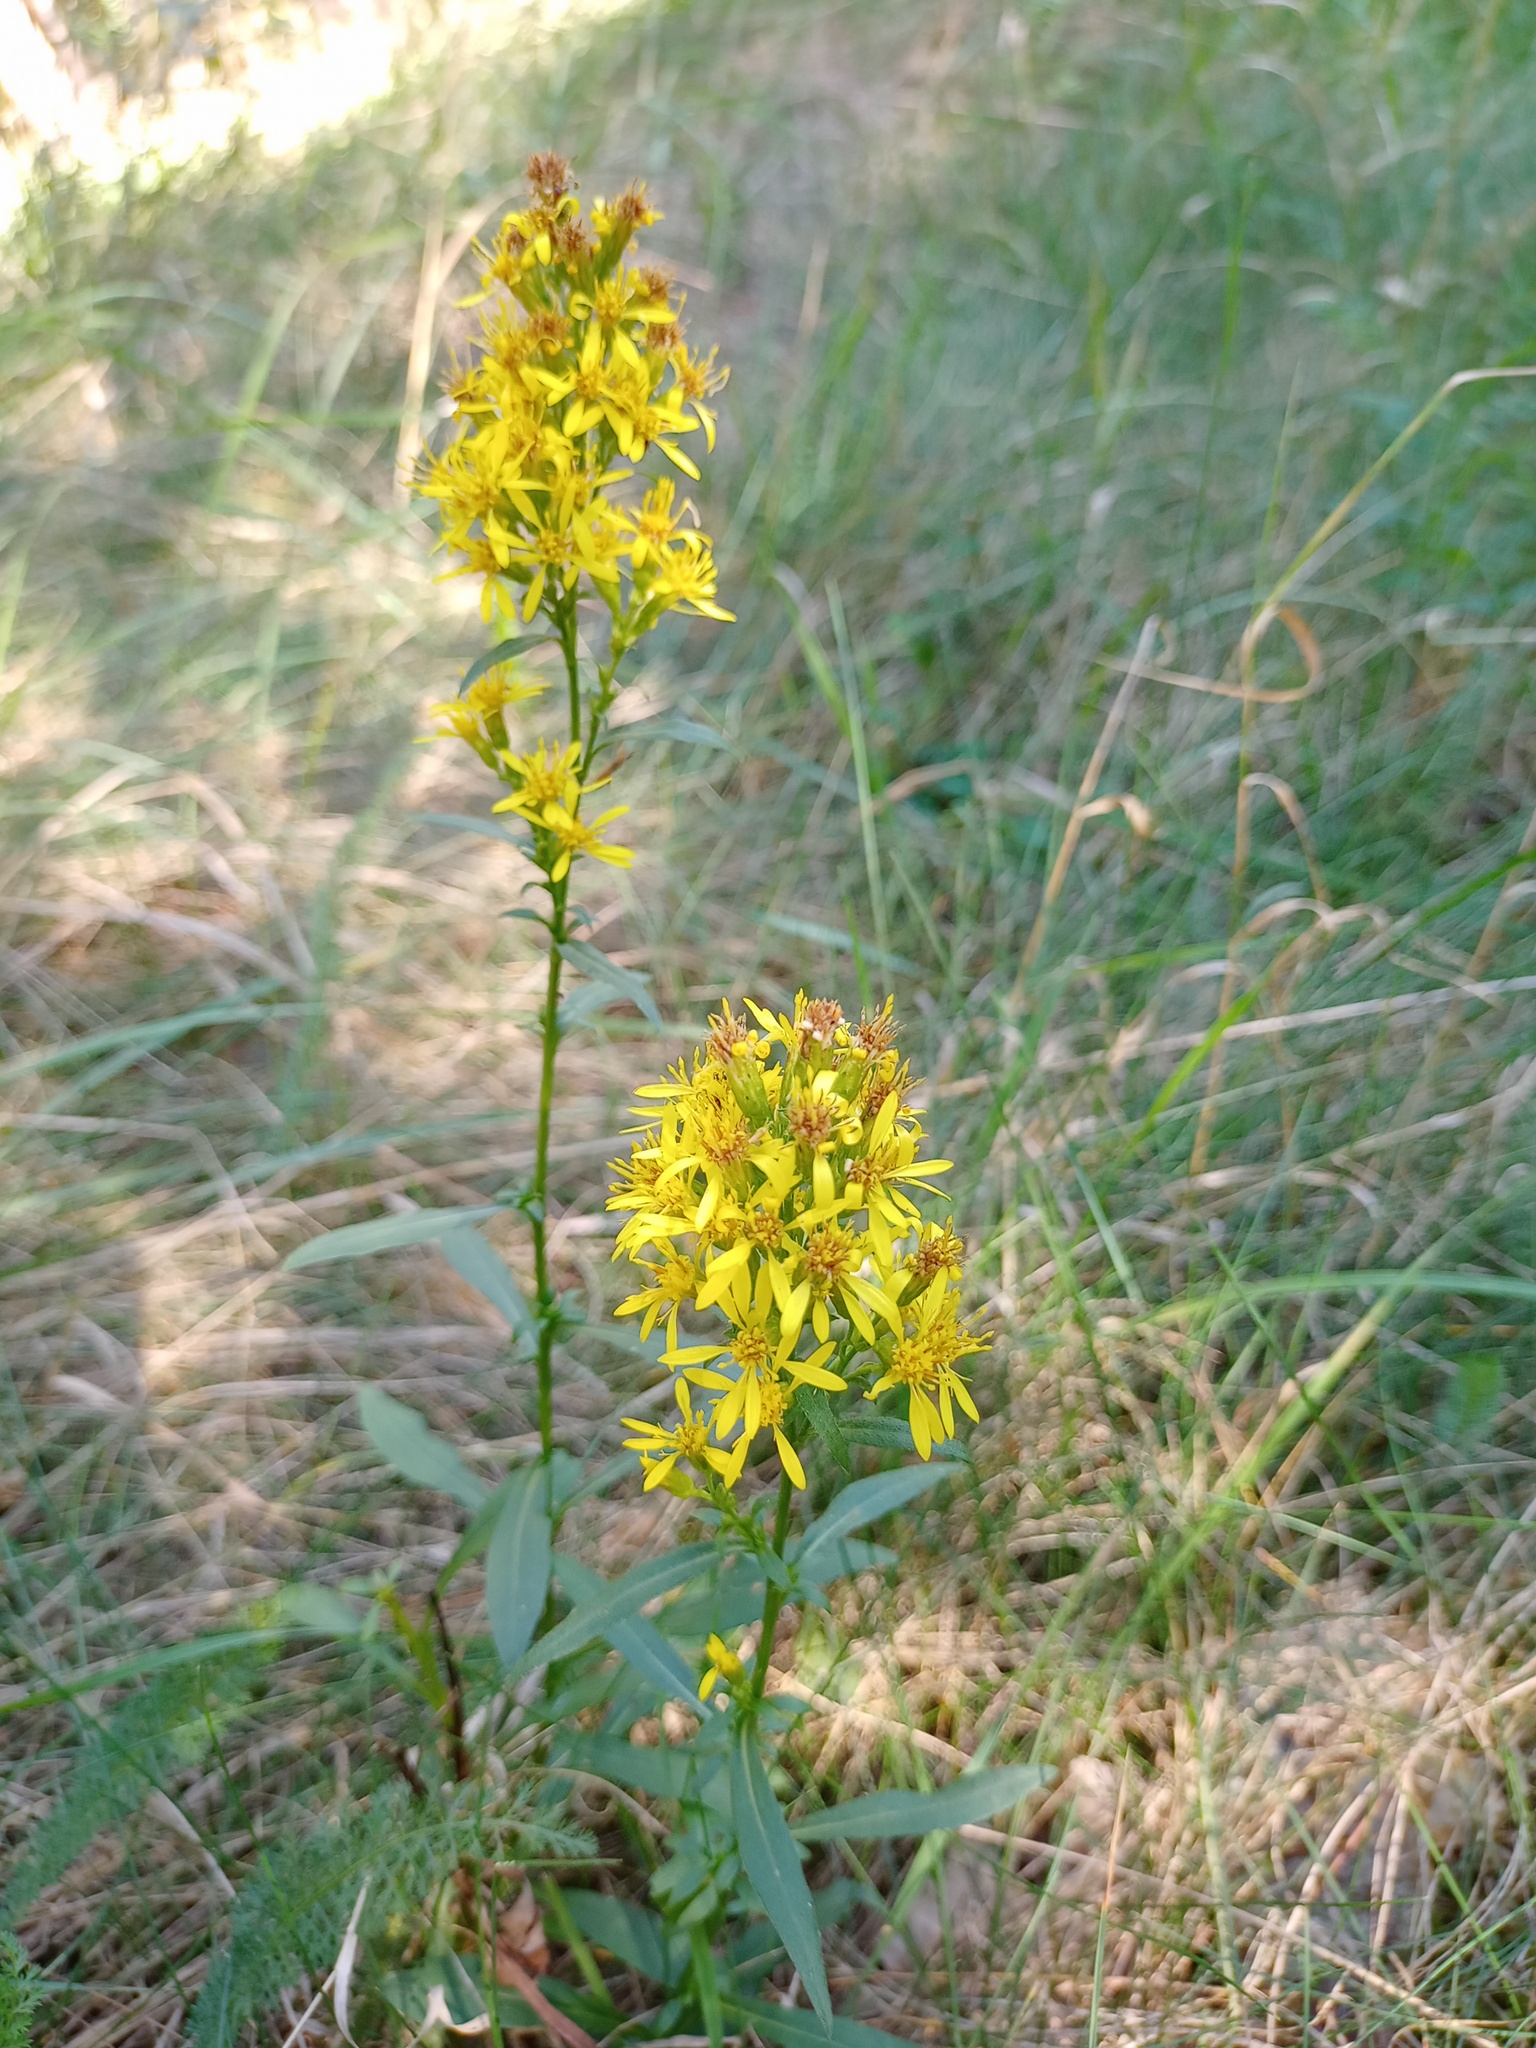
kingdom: Plantae
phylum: Tracheophyta
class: Magnoliopsida
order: Asterales
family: Asteraceae
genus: Solidago
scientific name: Solidago virgaurea
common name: Goldenrod
